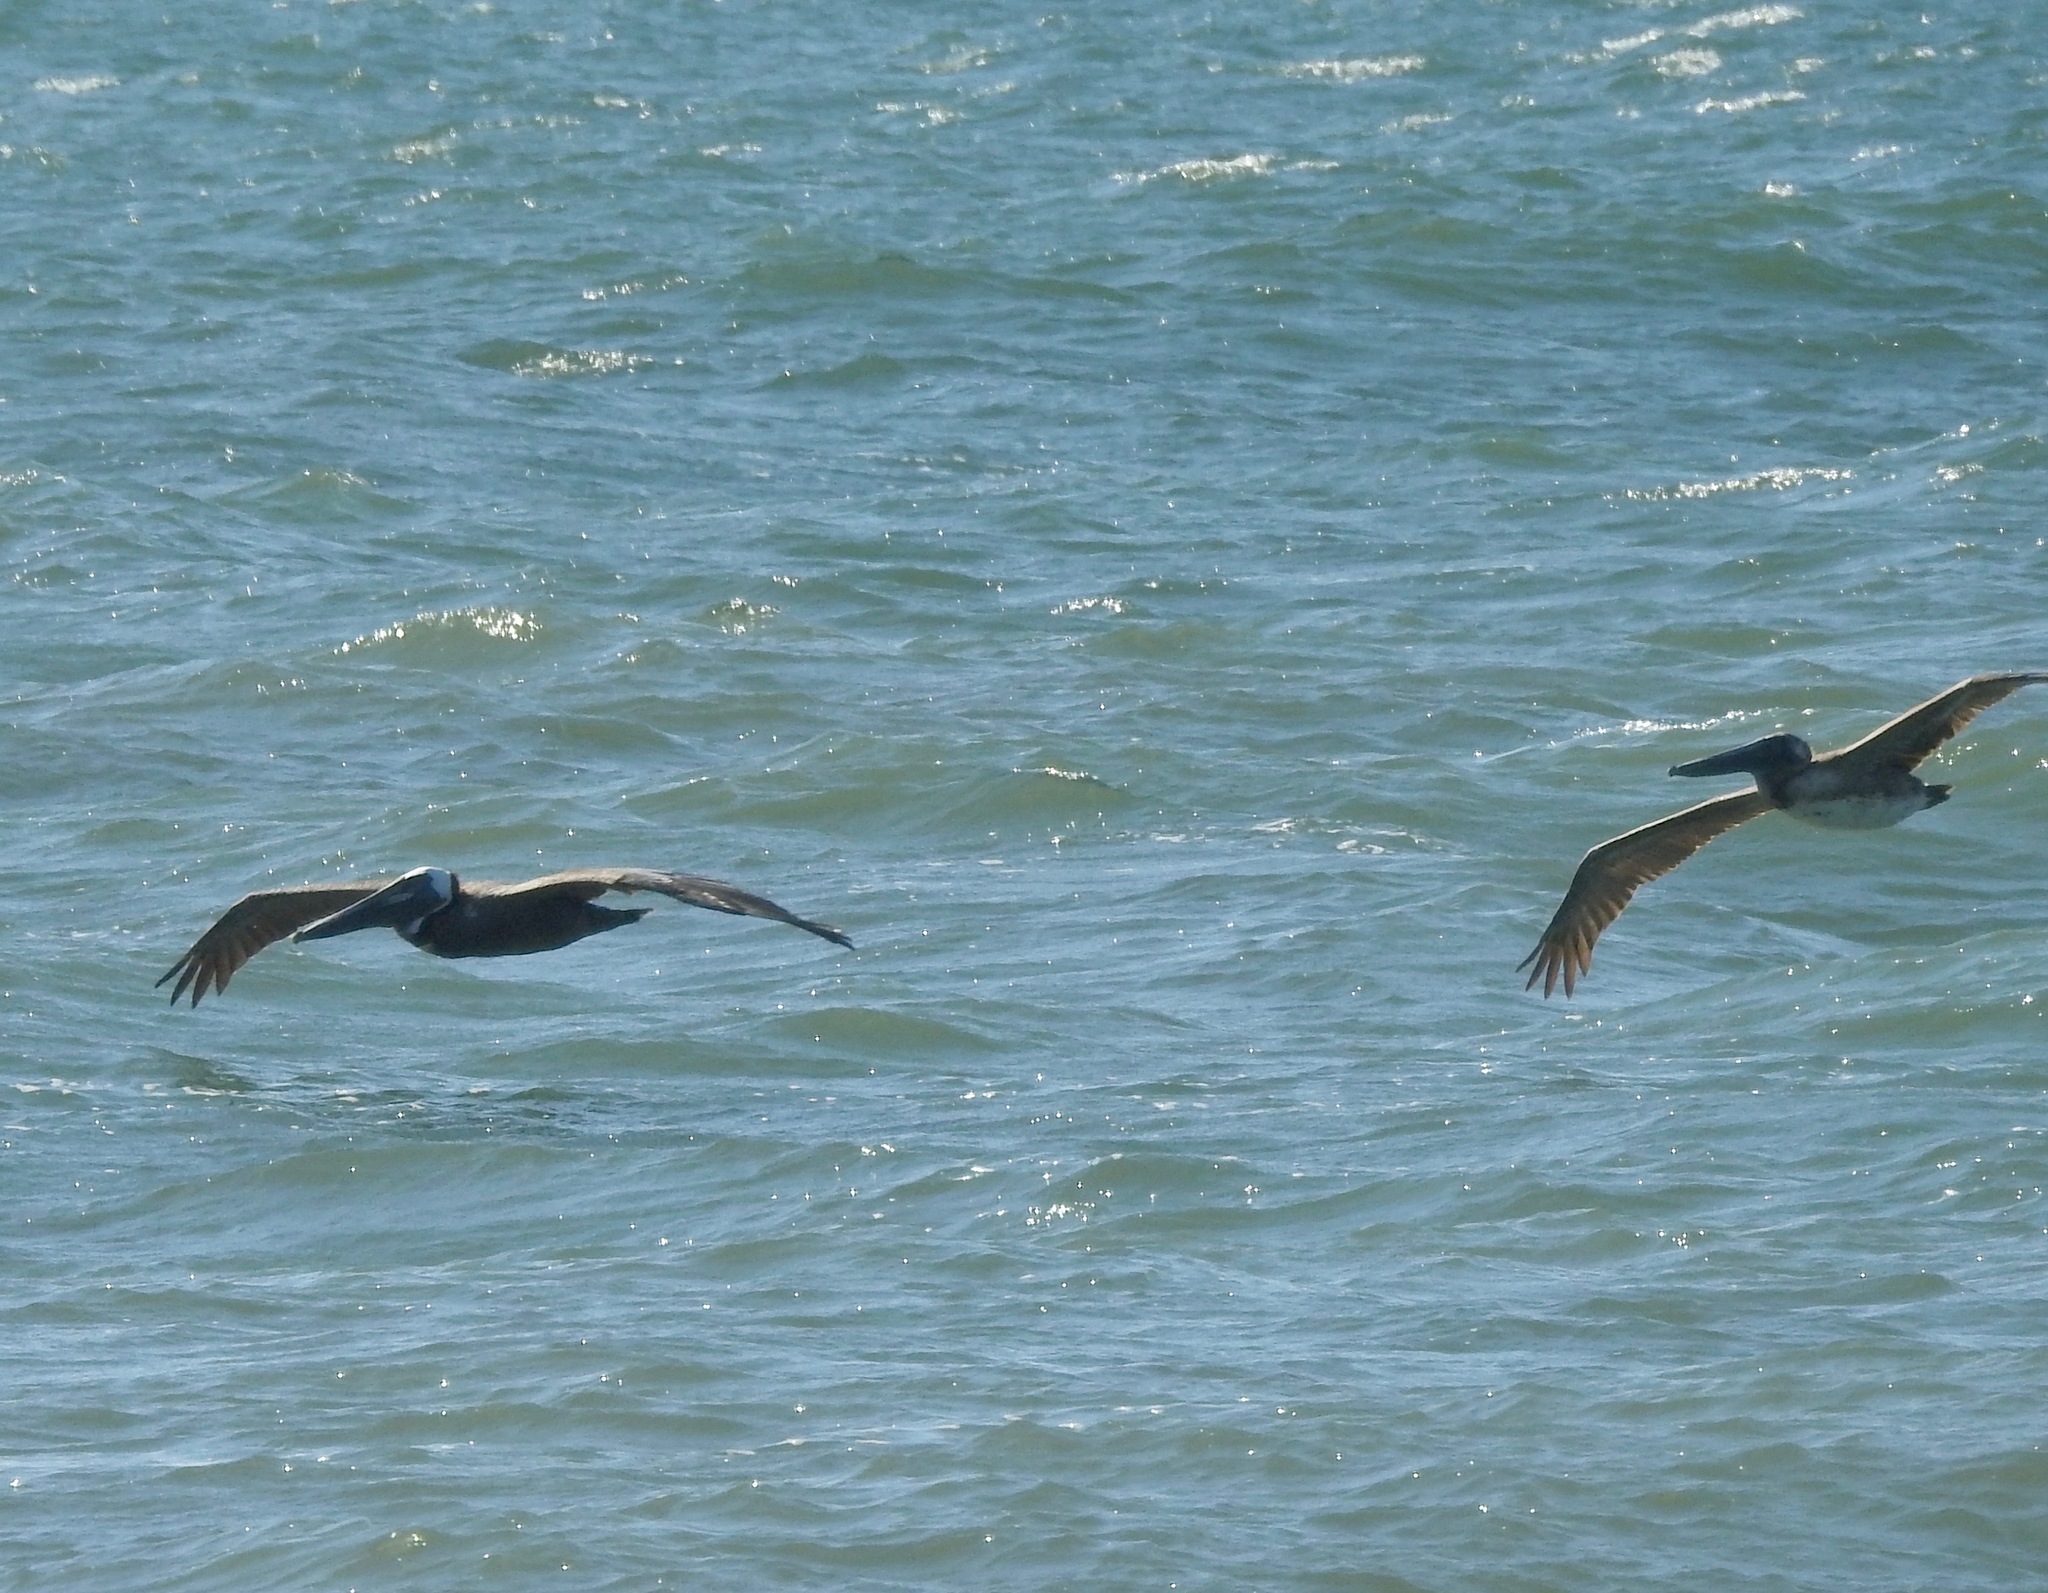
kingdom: Animalia
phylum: Chordata
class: Aves
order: Pelecaniformes
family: Pelecanidae
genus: Pelecanus
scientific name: Pelecanus occidentalis
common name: Brown pelican
